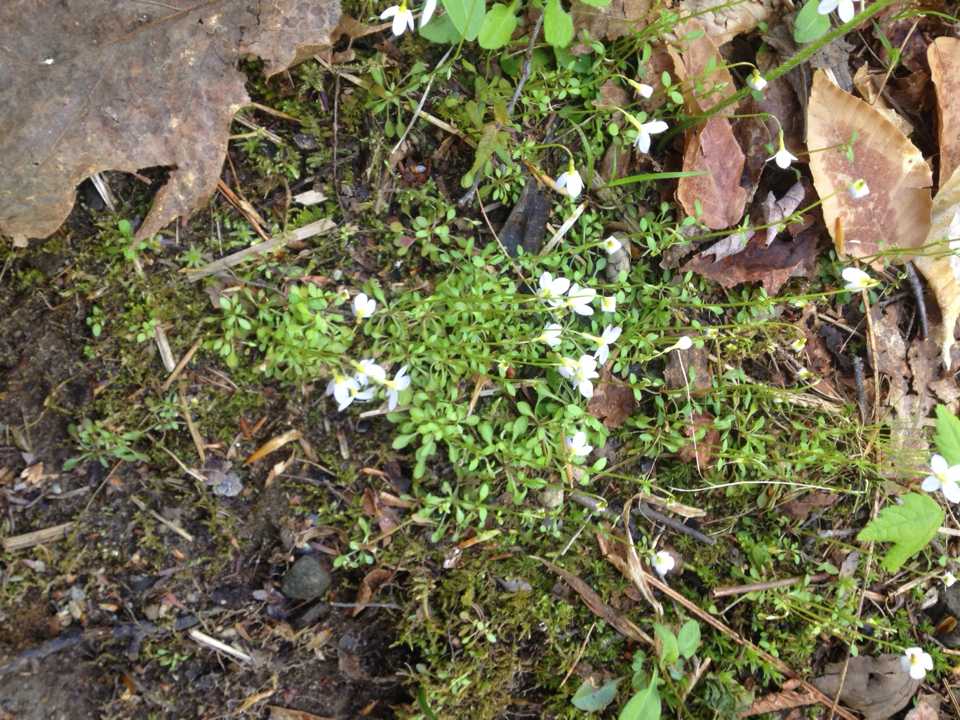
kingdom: Plantae
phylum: Tracheophyta
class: Magnoliopsida
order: Gentianales
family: Rubiaceae
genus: Houstonia
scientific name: Houstonia caerulea
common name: Bluets
